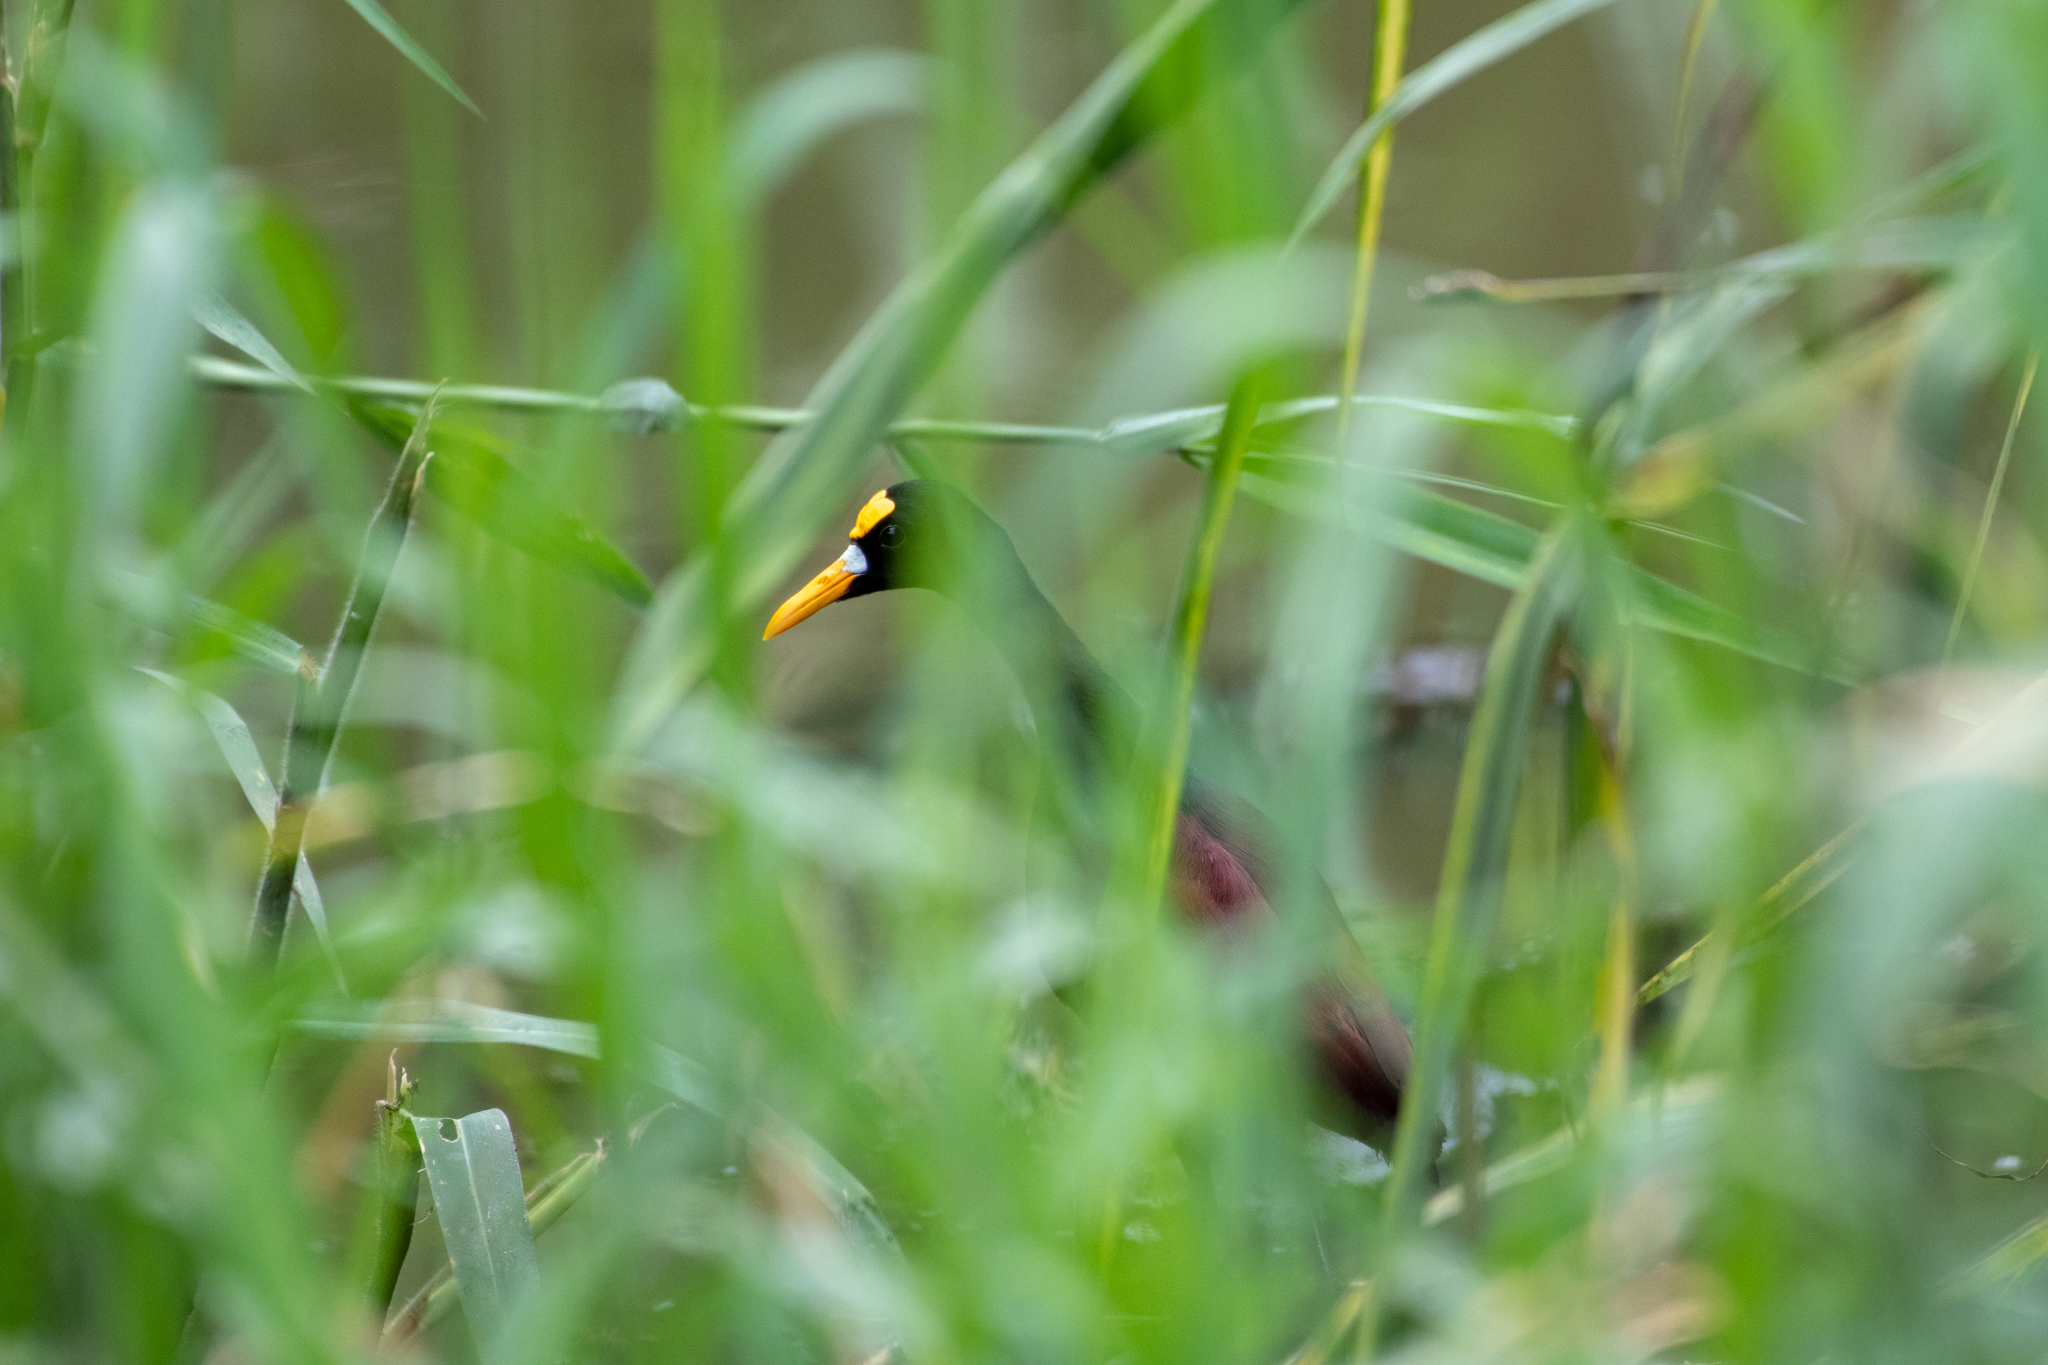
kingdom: Animalia
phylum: Chordata
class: Aves
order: Charadriiformes
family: Jacanidae
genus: Jacana
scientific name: Jacana spinosa
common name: Northern jacana
